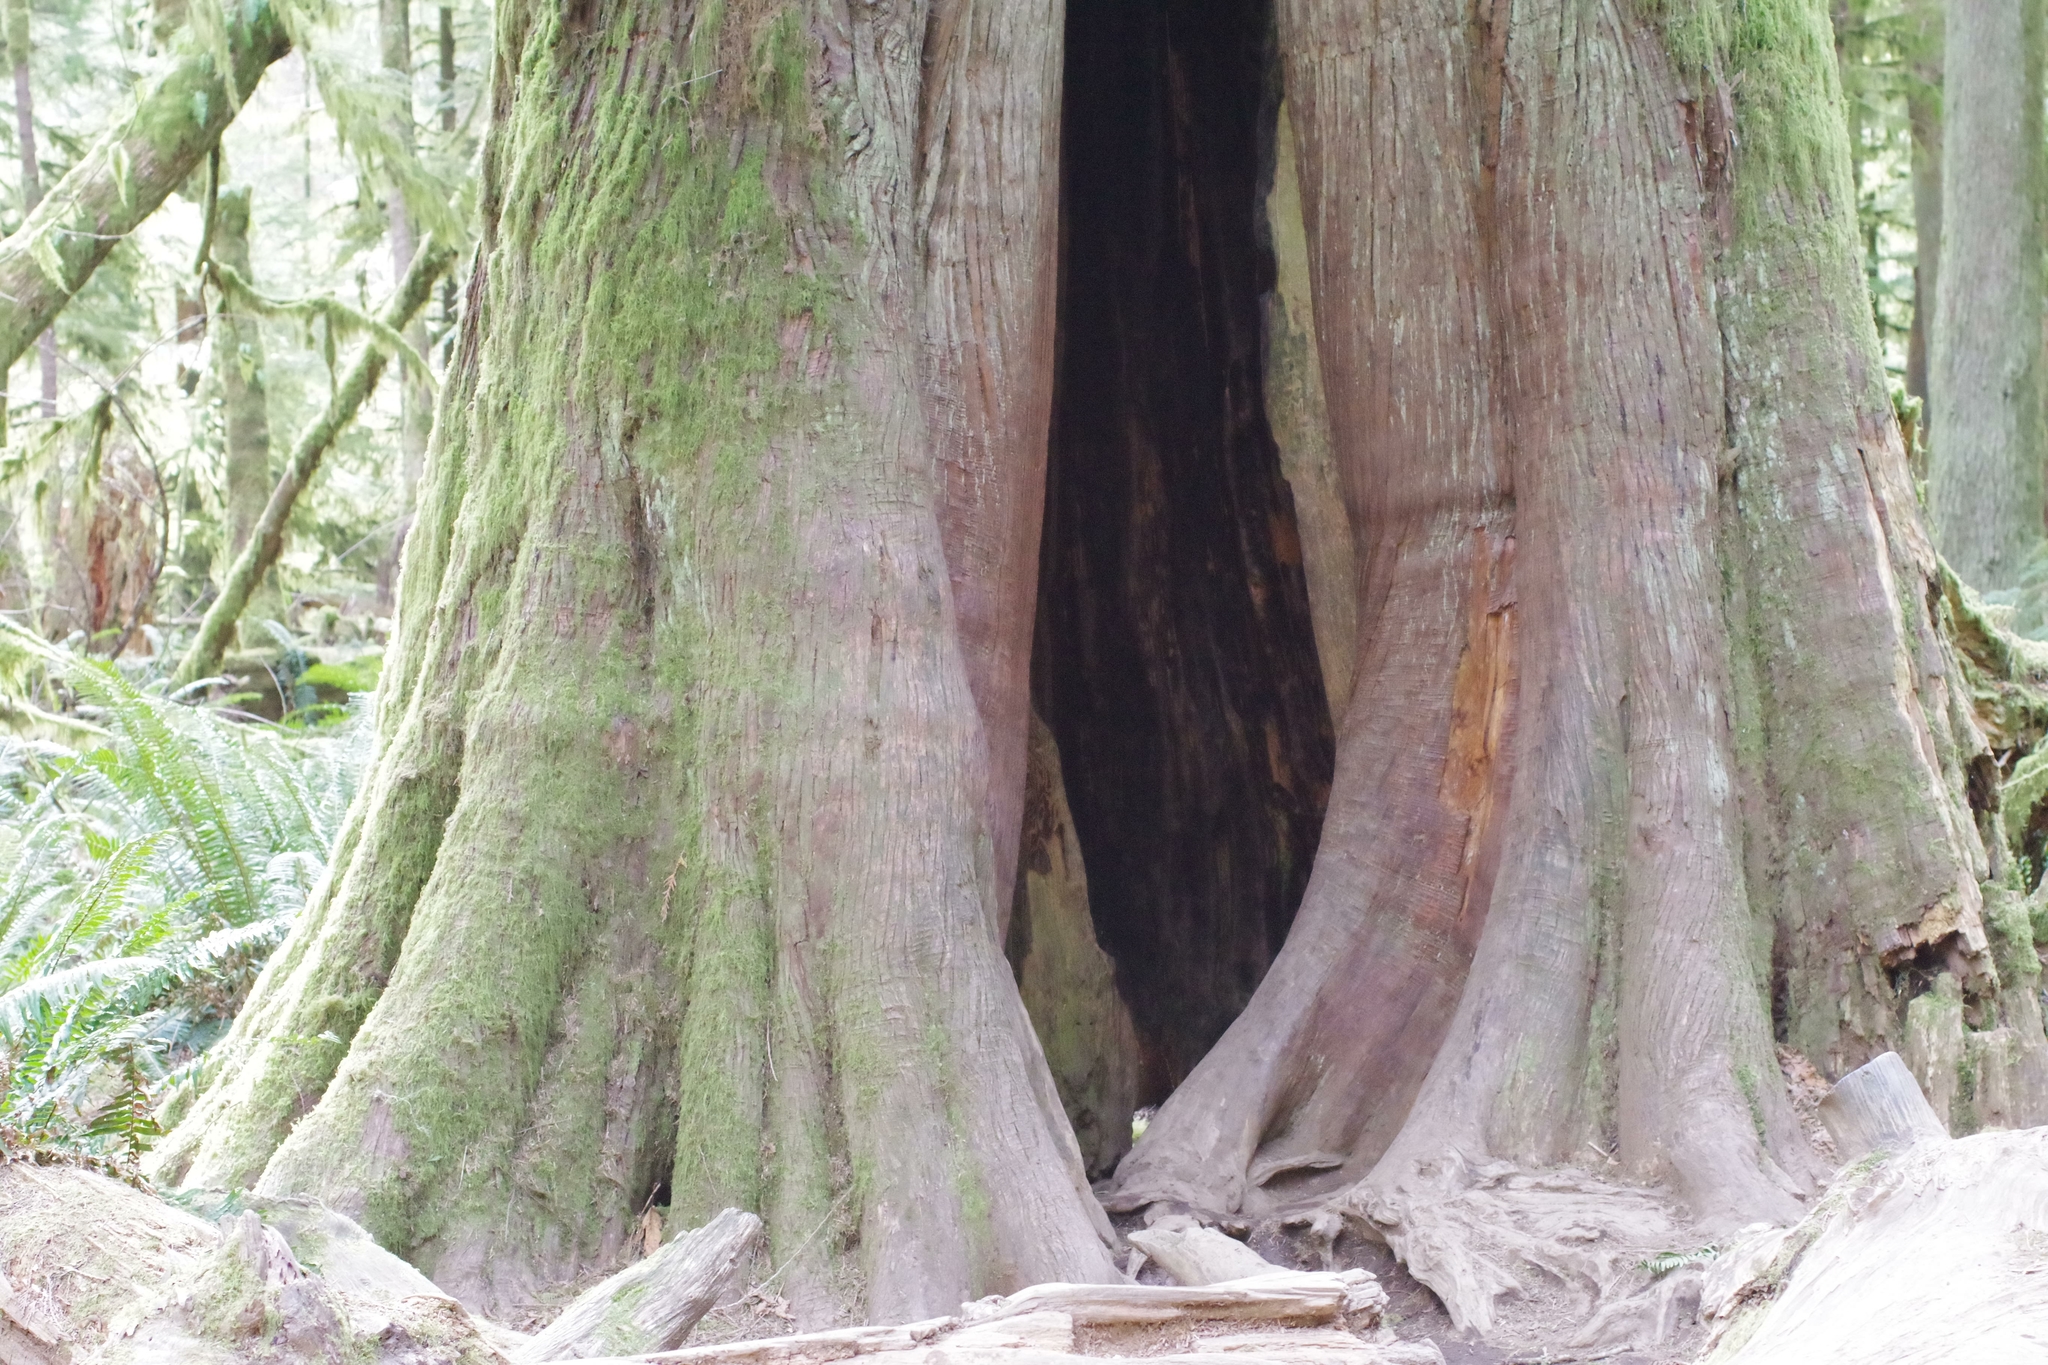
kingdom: Plantae
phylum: Tracheophyta
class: Pinopsida
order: Pinales
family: Cupressaceae
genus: Thuja
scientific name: Thuja plicata
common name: Western red-cedar
